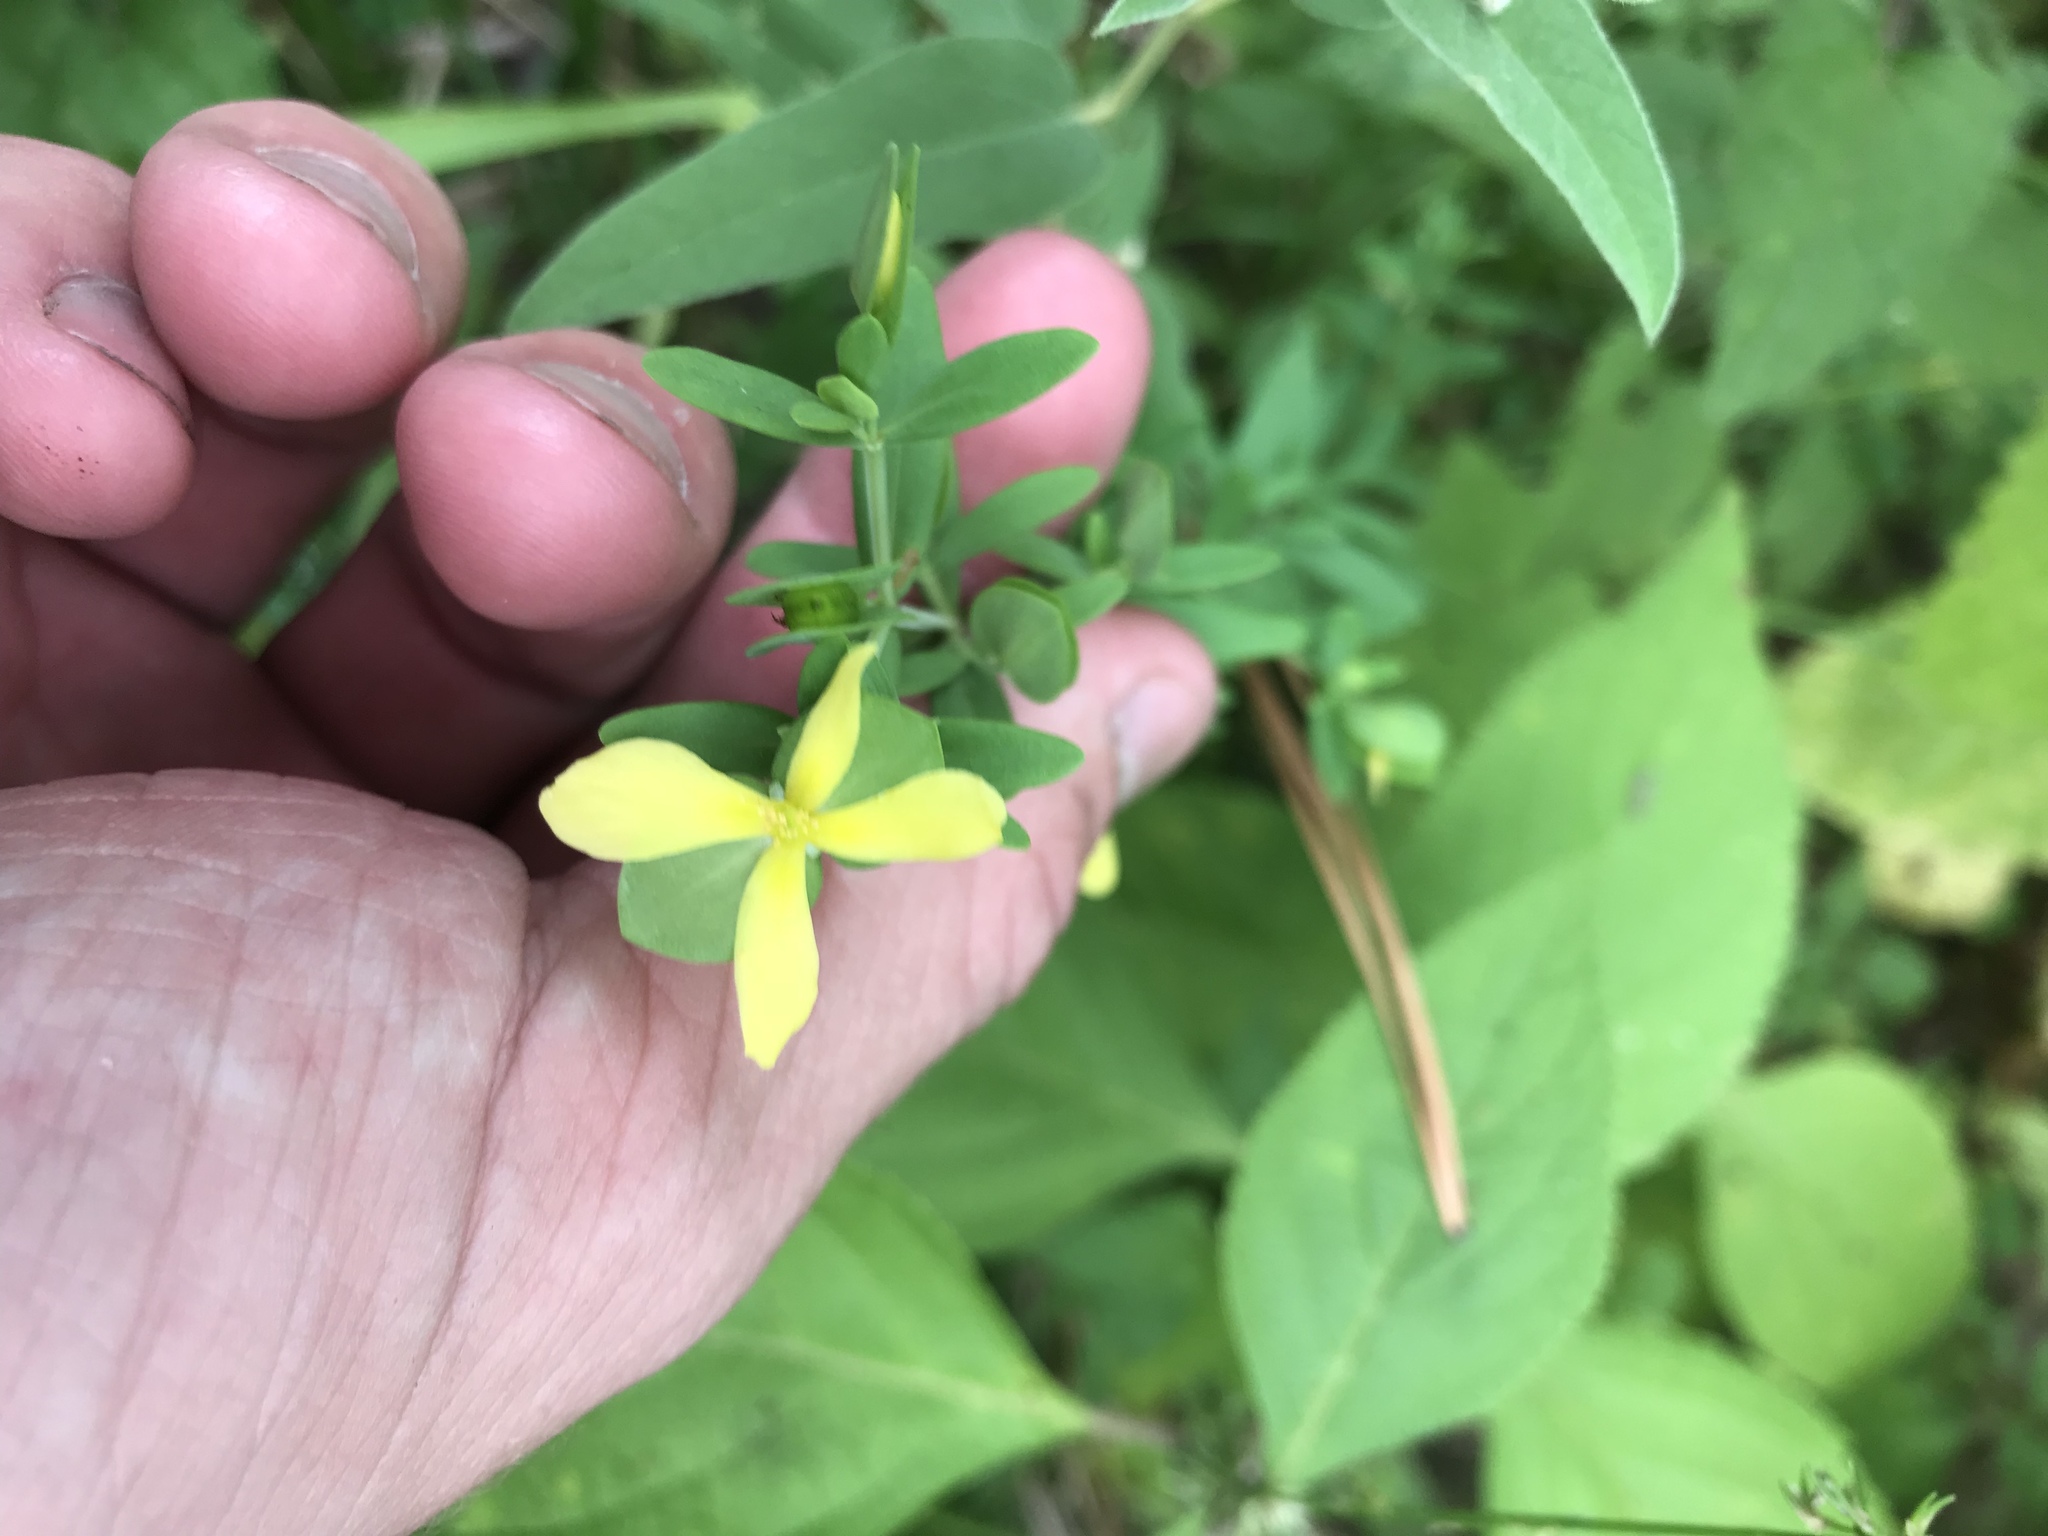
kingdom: Plantae
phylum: Tracheophyta
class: Magnoliopsida
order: Malpighiales
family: Hypericaceae
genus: Hypericum
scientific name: Hypericum hypericoides
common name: St. andrew's cross
